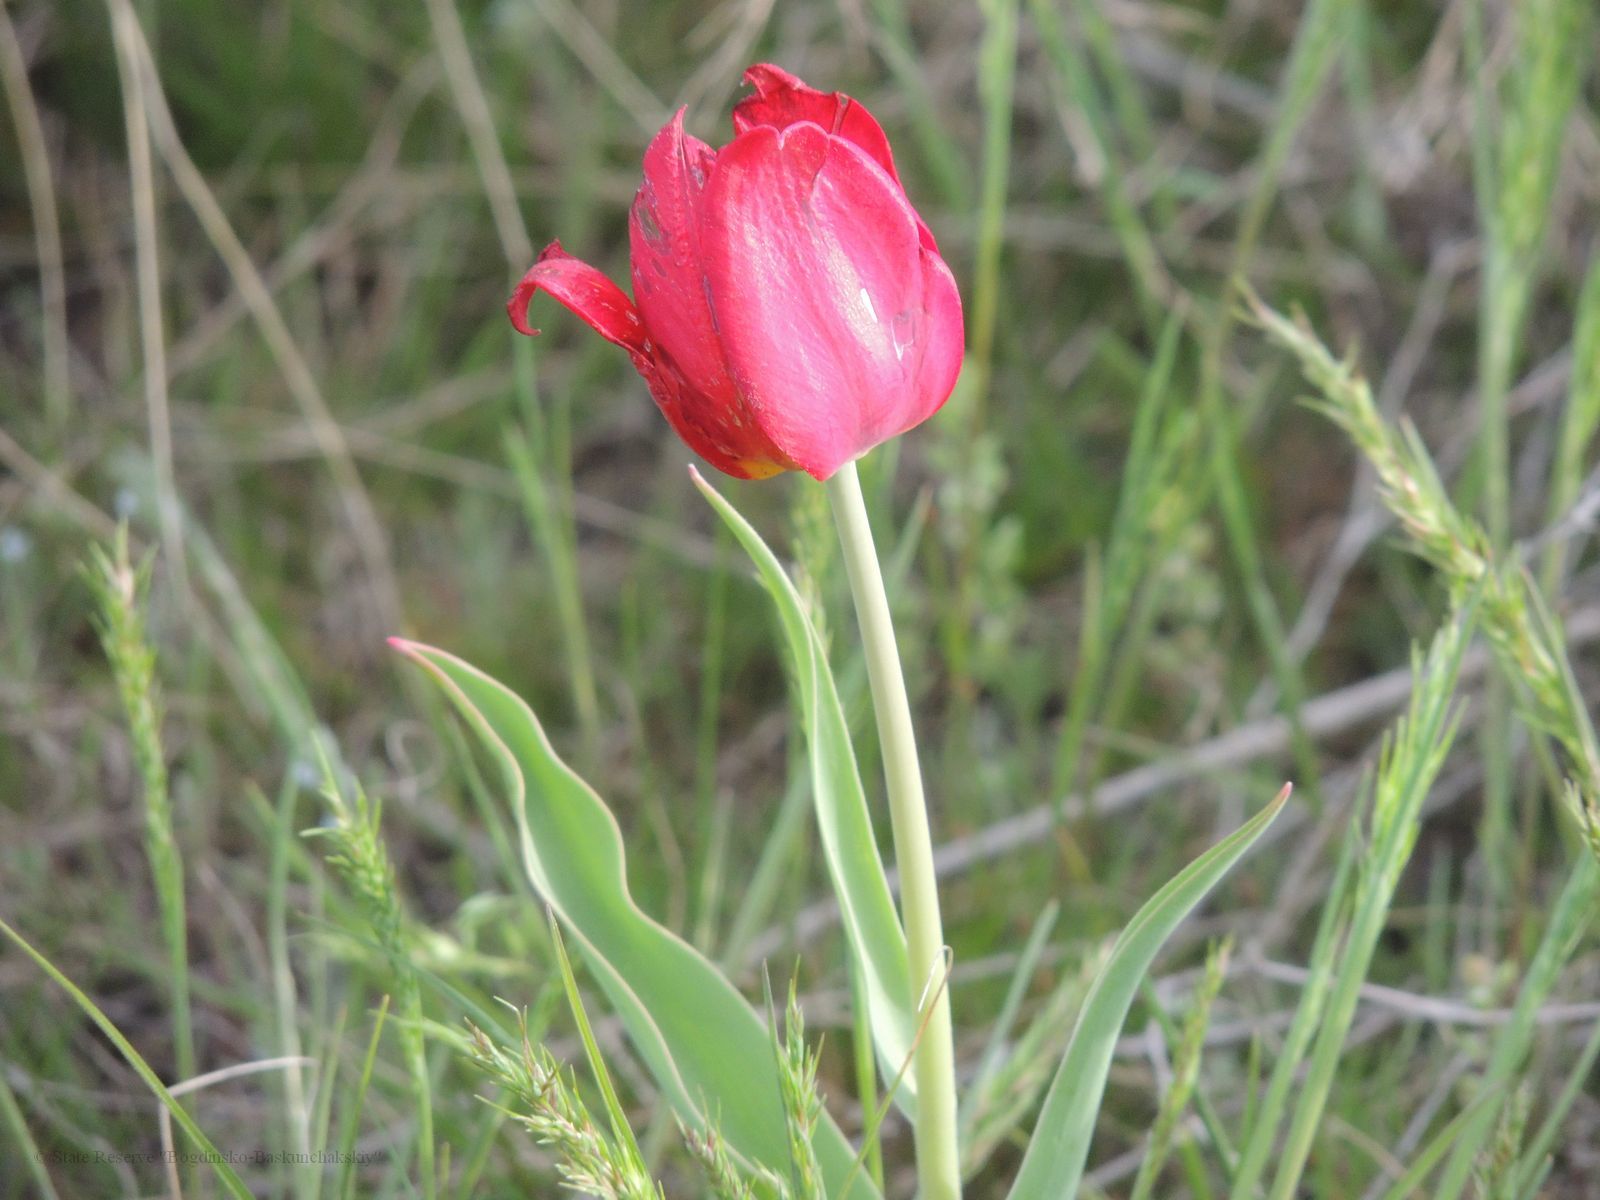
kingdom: Plantae
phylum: Tracheophyta
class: Liliopsida
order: Liliales
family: Liliaceae
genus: Tulipa
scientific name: Tulipa suaveolens
